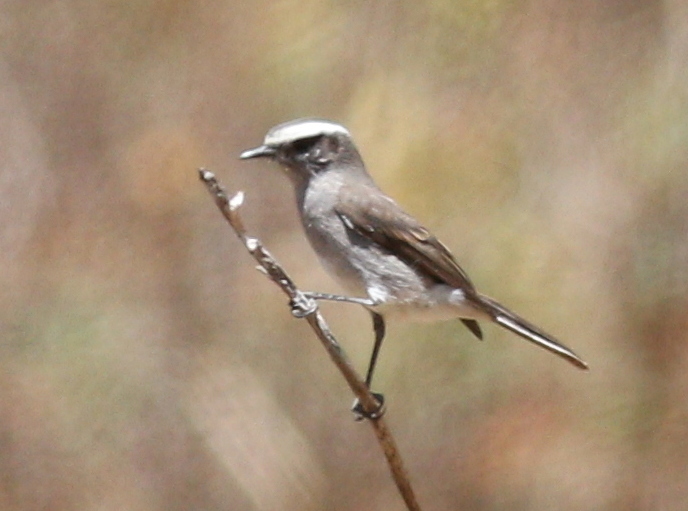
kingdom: Animalia
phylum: Chordata
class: Aves
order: Passeriformes
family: Tyrannidae
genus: Ochthoeca
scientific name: Ochthoeca leucophrys
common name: White-browed chat-tyrant
